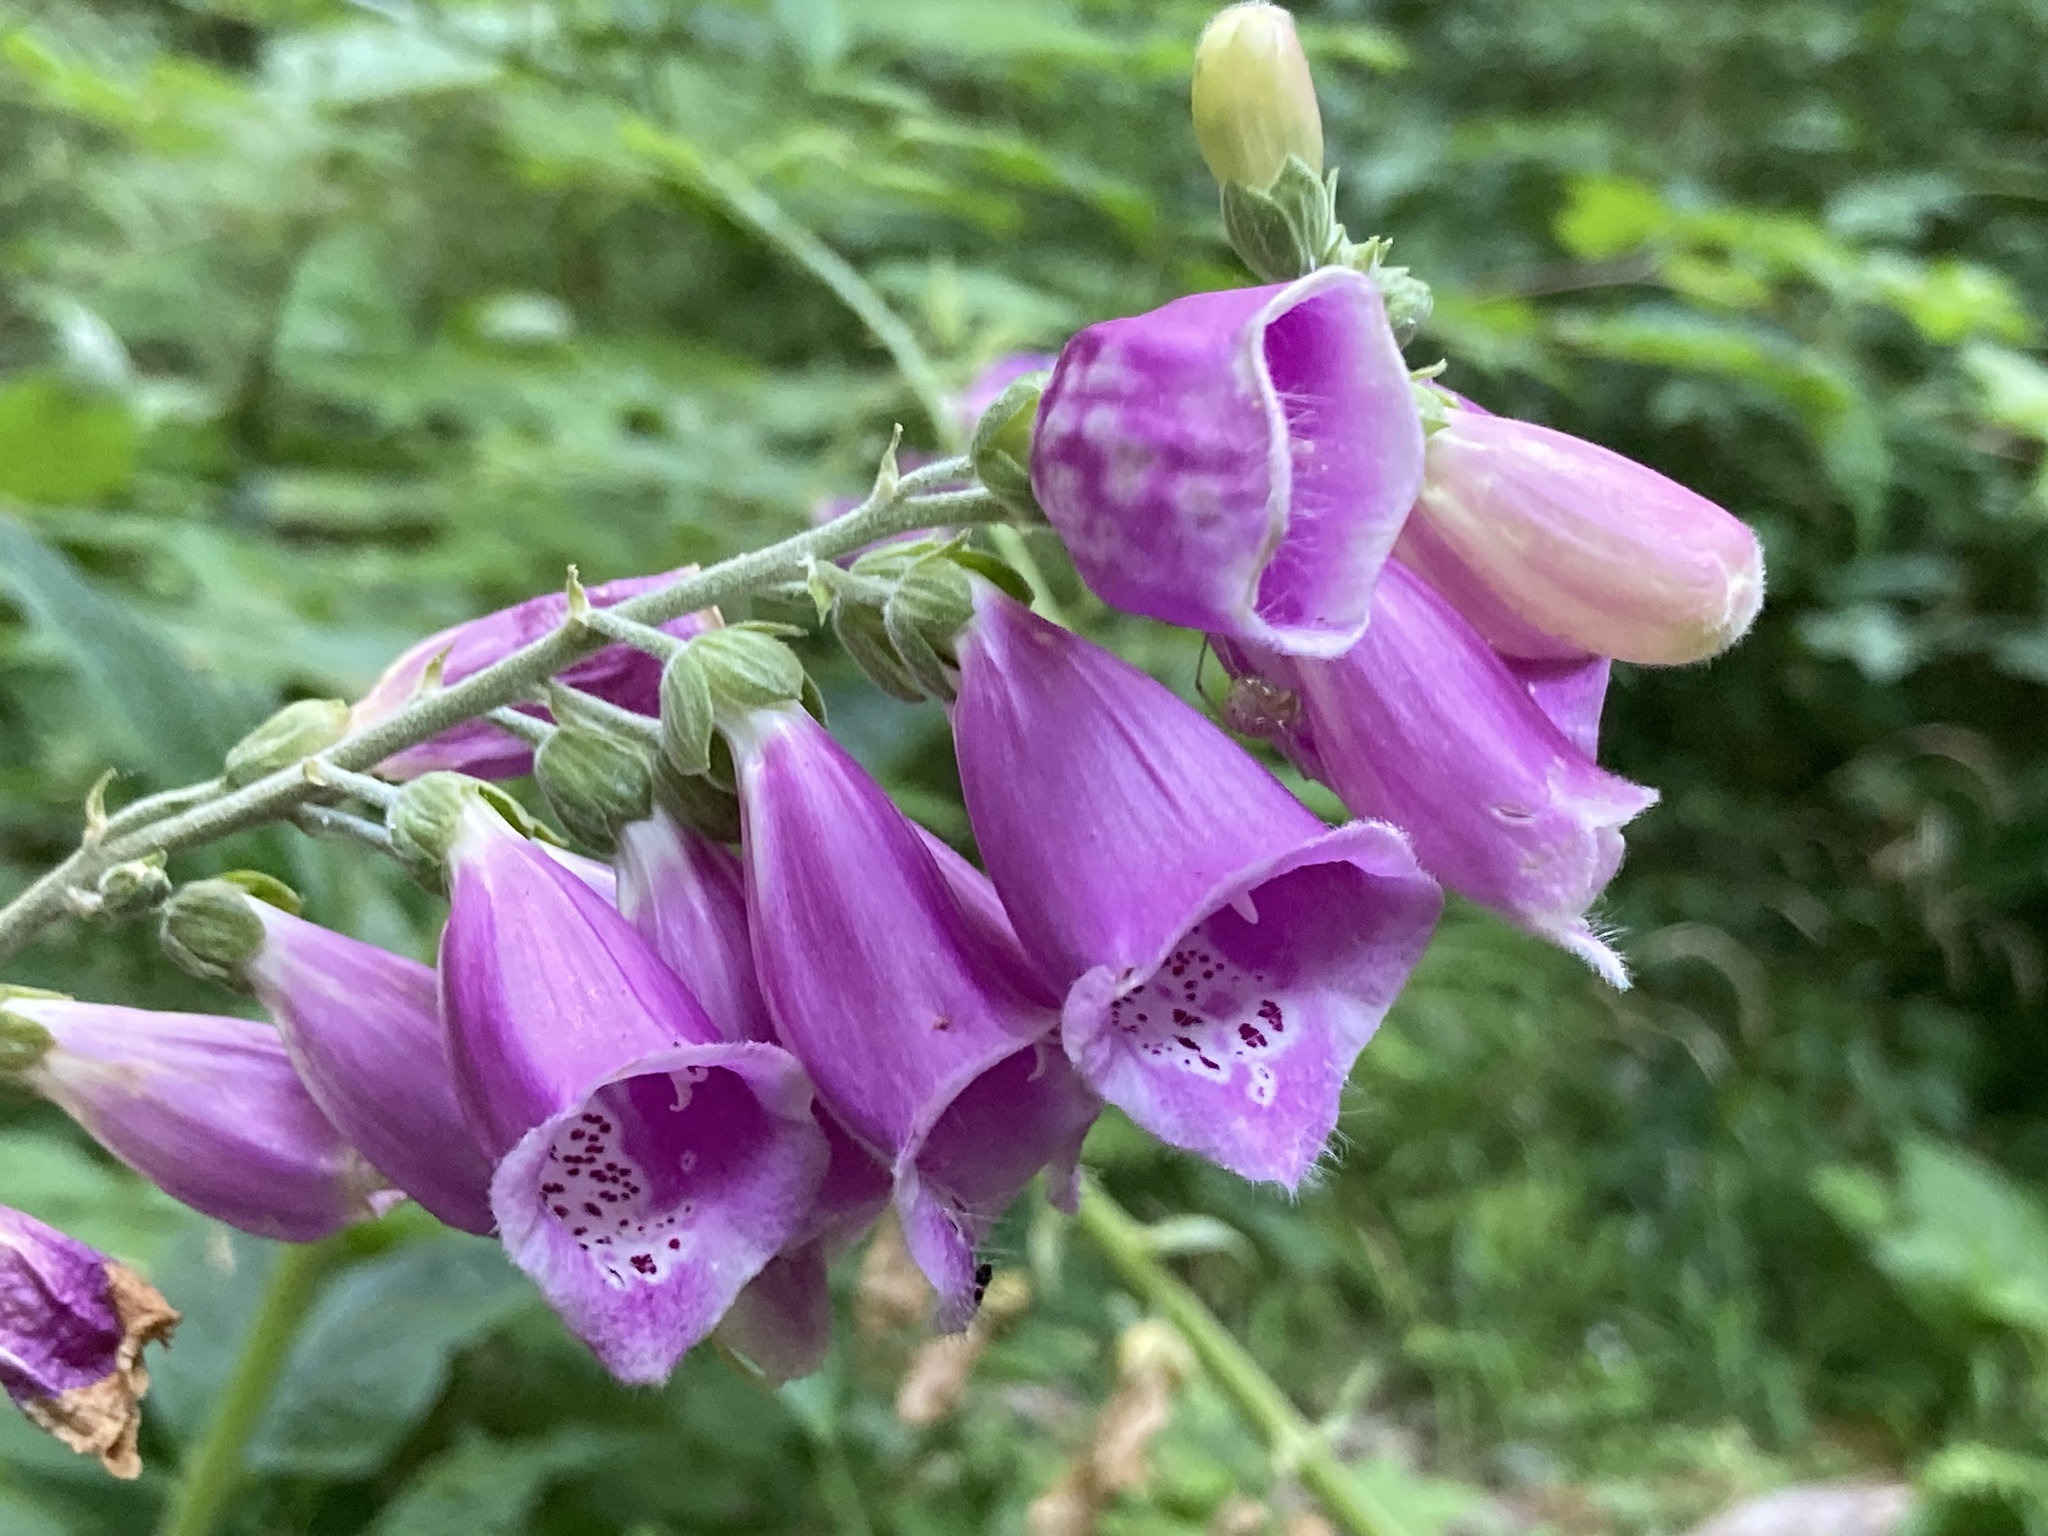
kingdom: Plantae
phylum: Tracheophyta
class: Magnoliopsida
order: Lamiales
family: Plantaginaceae
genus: Digitalis
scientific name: Digitalis purpurea
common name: Foxglove
